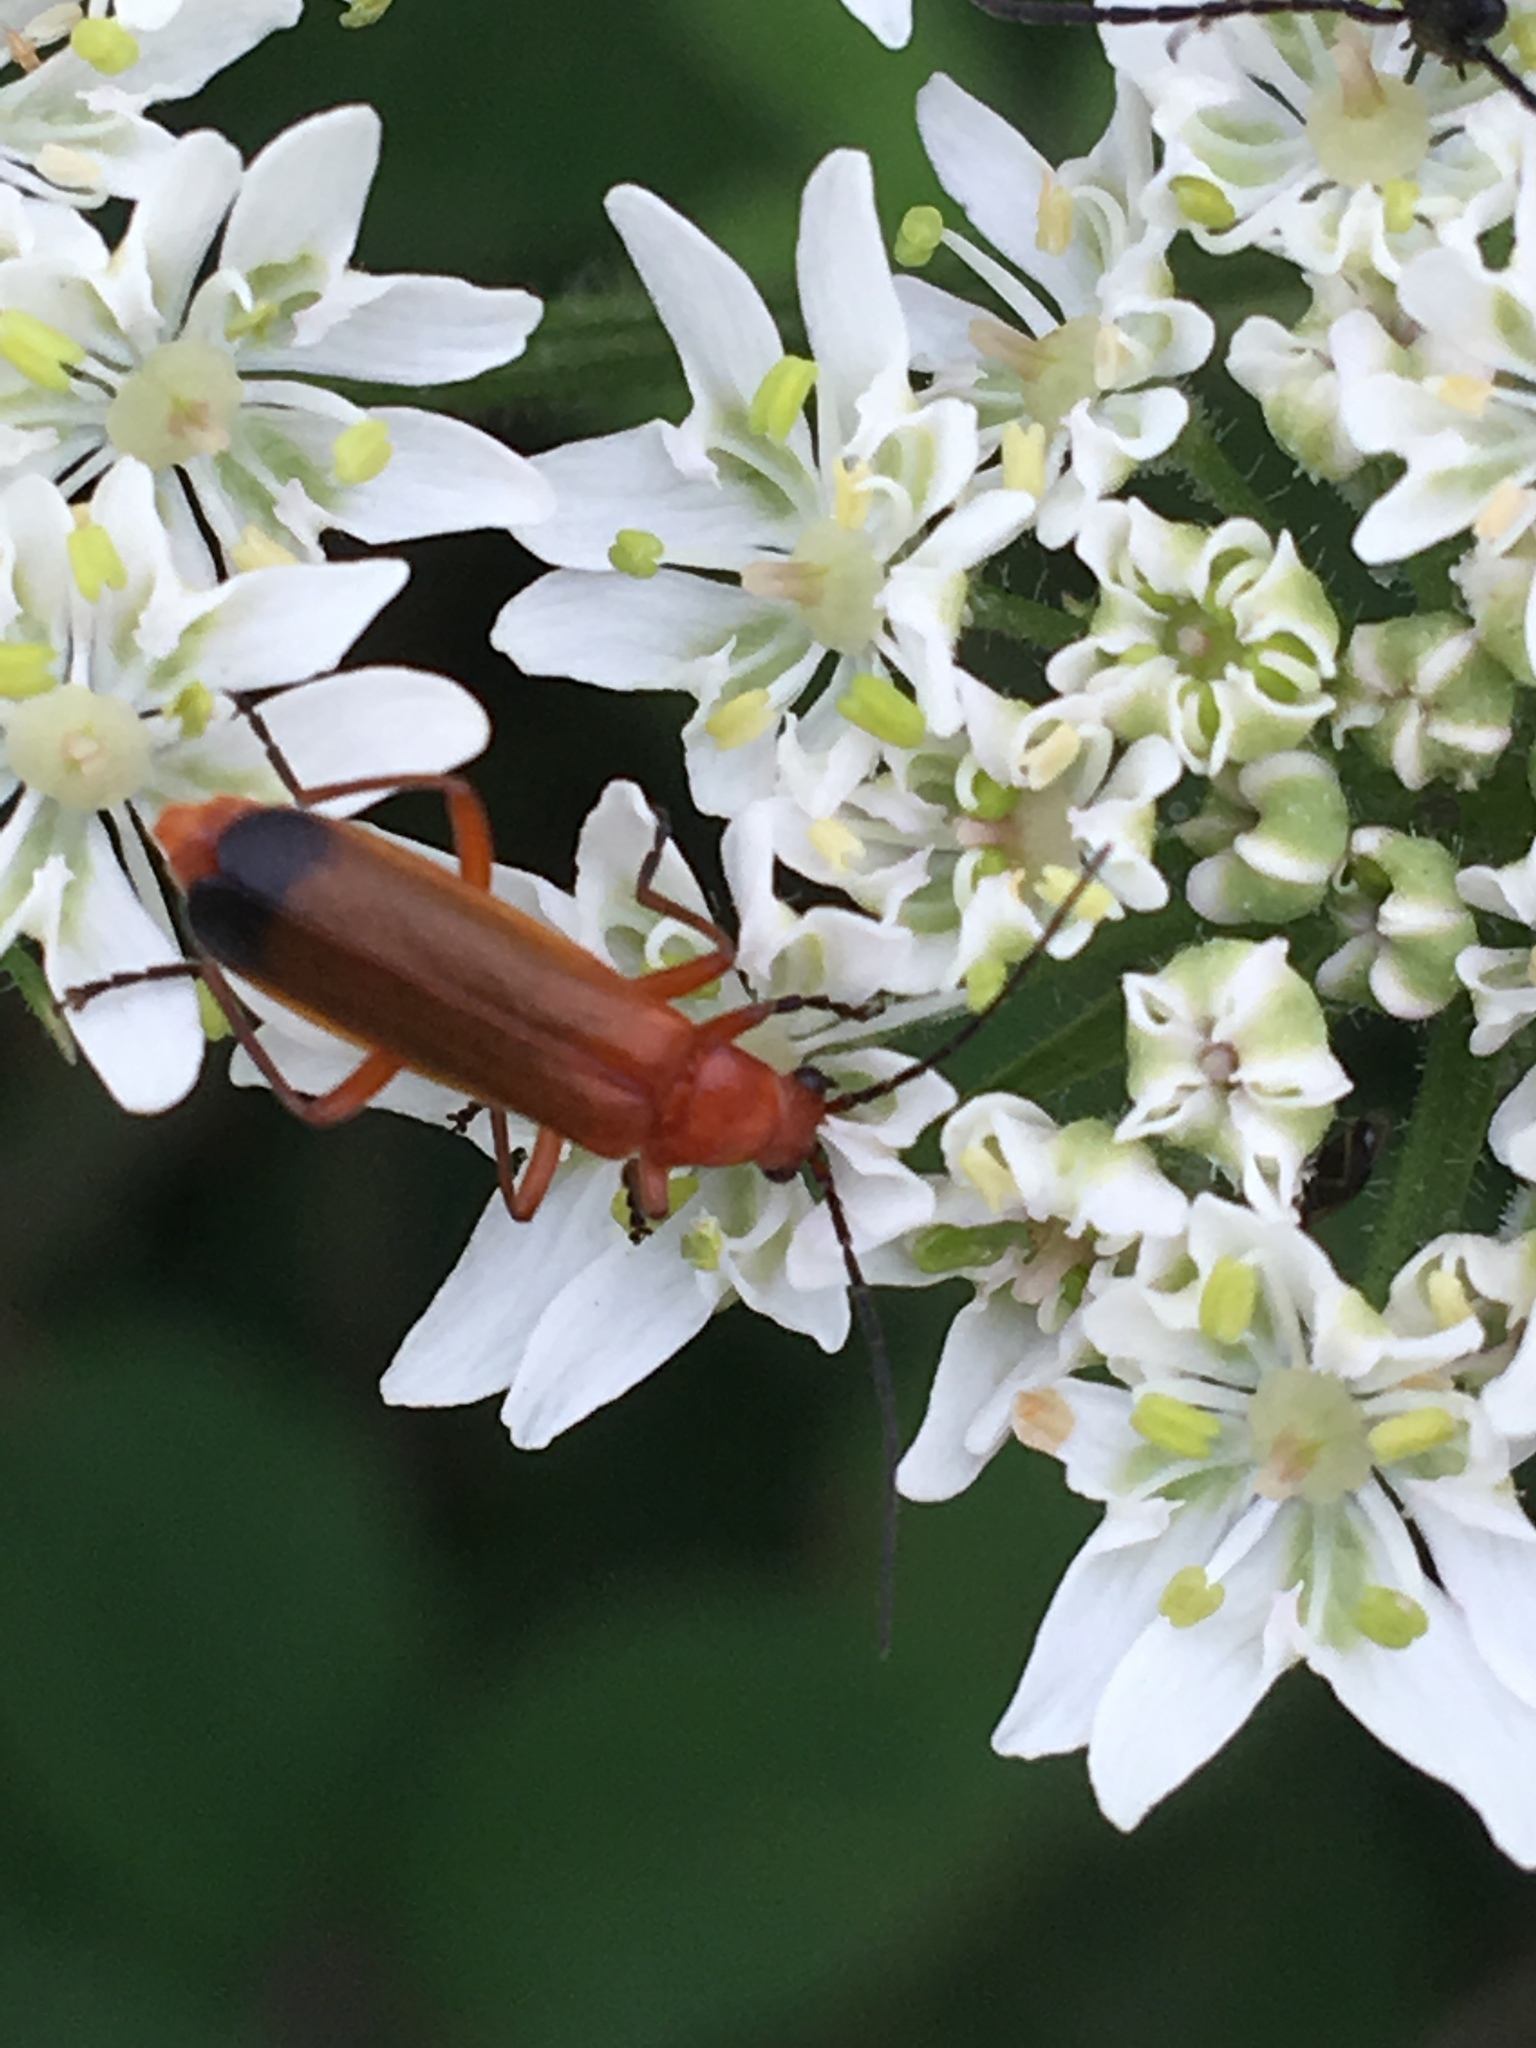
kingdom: Animalia
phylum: Arthropoda
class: Insecta
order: Coleoptera
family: Cantharidae
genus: Rhagonycha
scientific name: Rhagonycha fulva
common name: Common red soldier beetle
